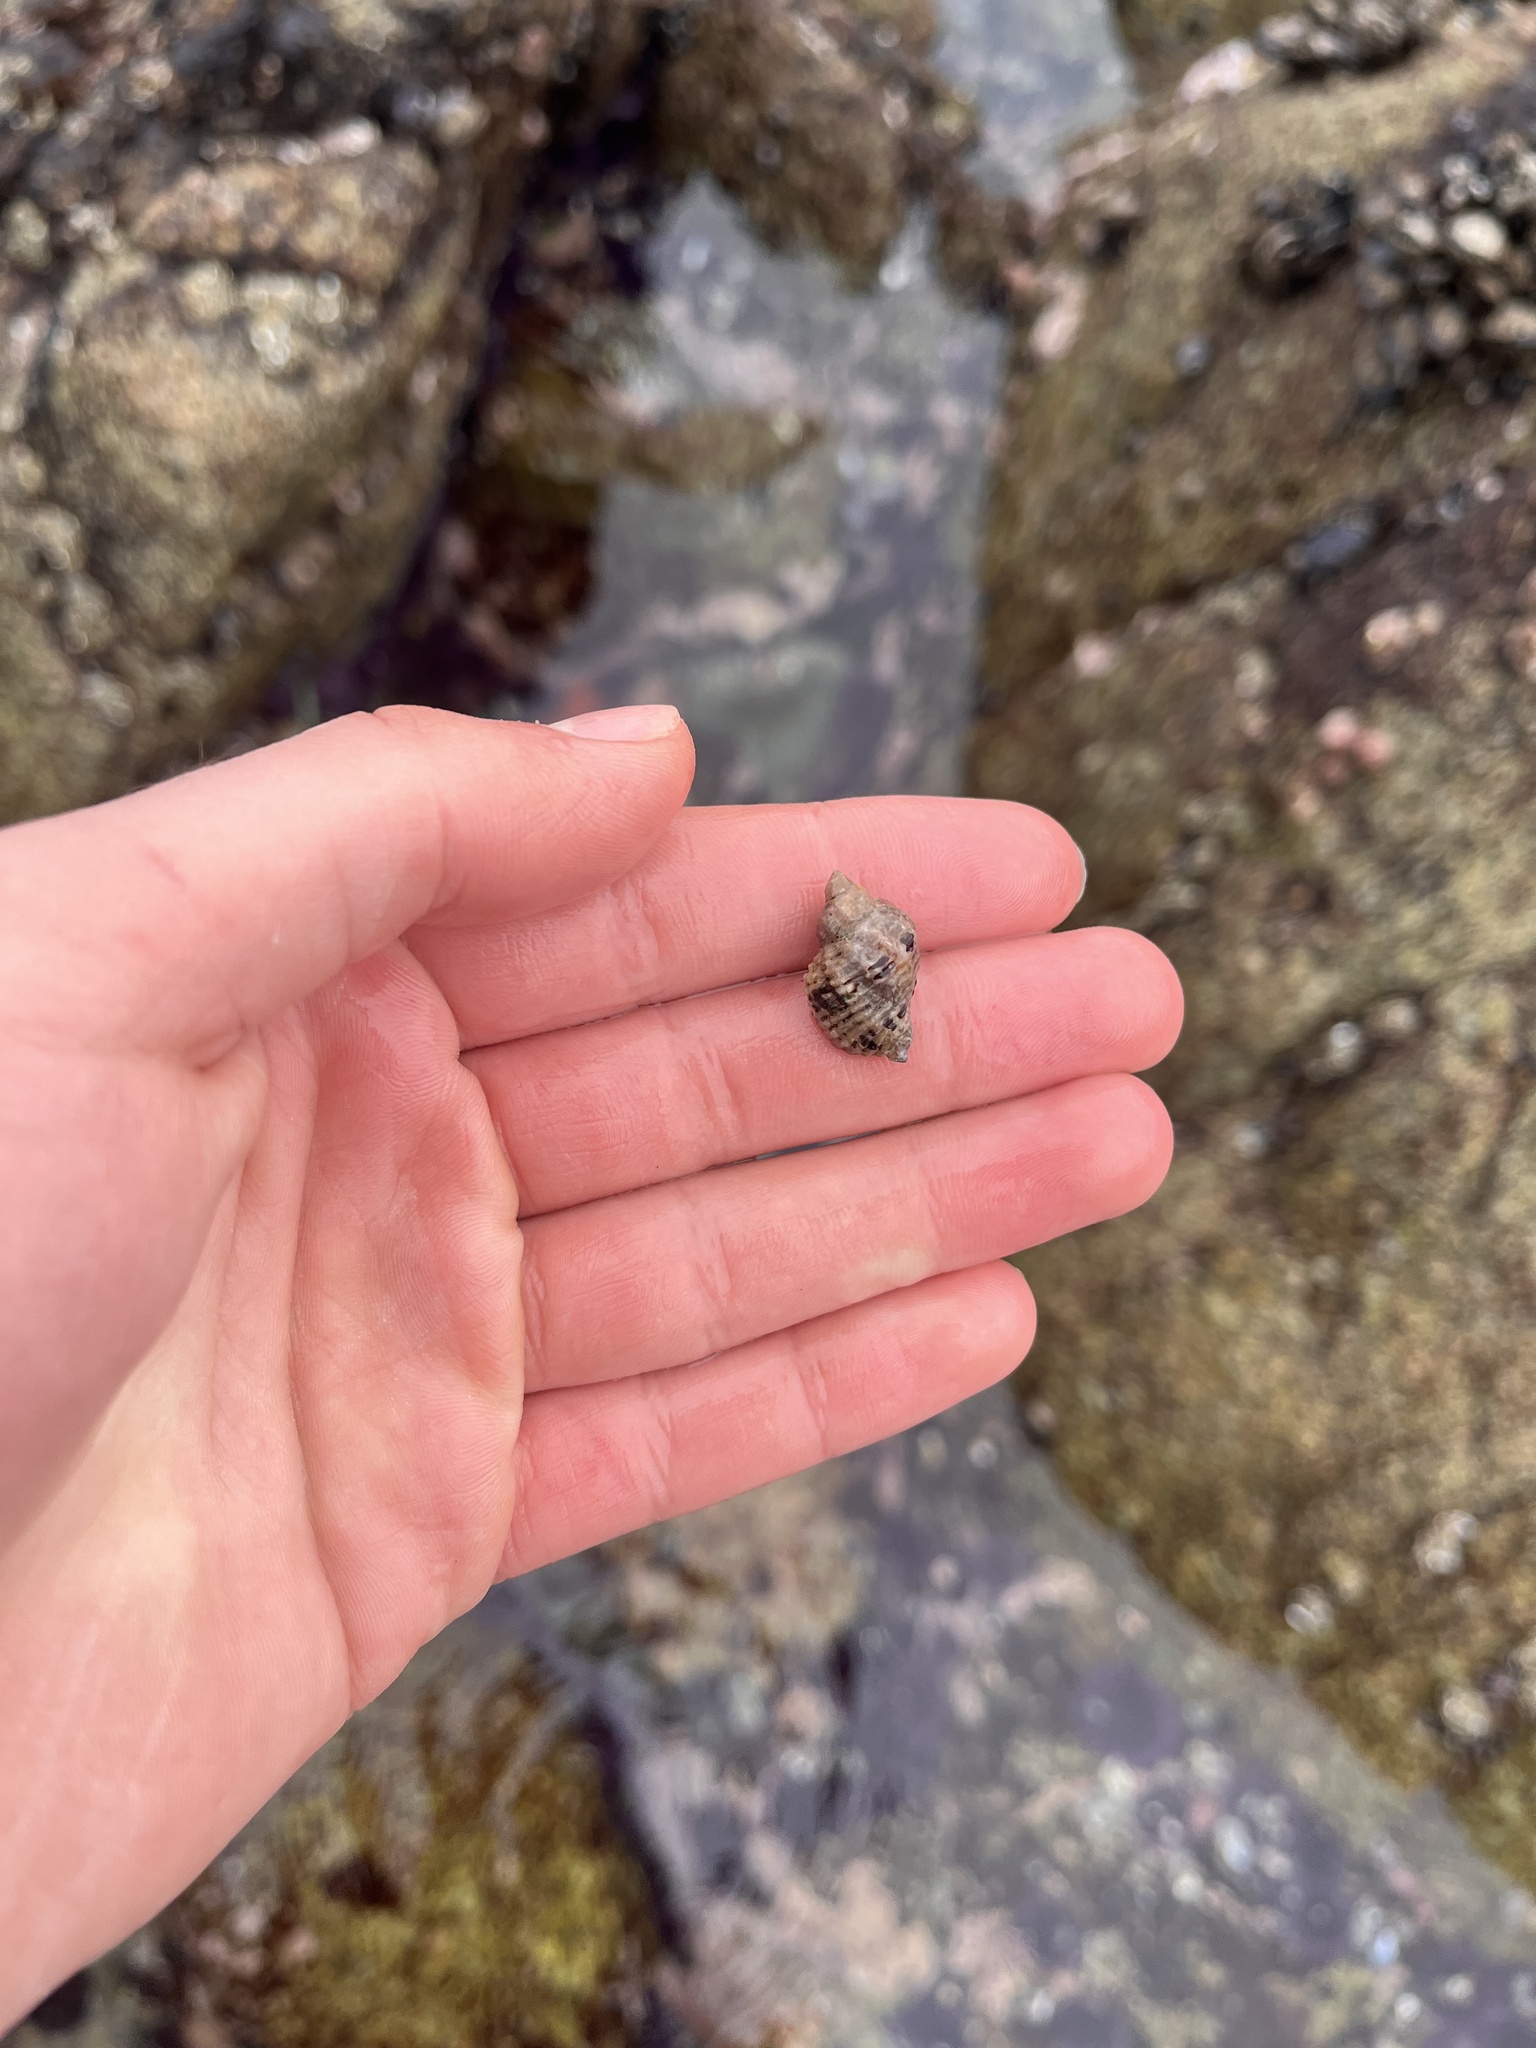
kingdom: Animalia
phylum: Mollusca
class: Gastropoda
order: Neogastropoda
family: Muricidae
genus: Paciocinebrina
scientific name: Paciocinebrina circumtexta
